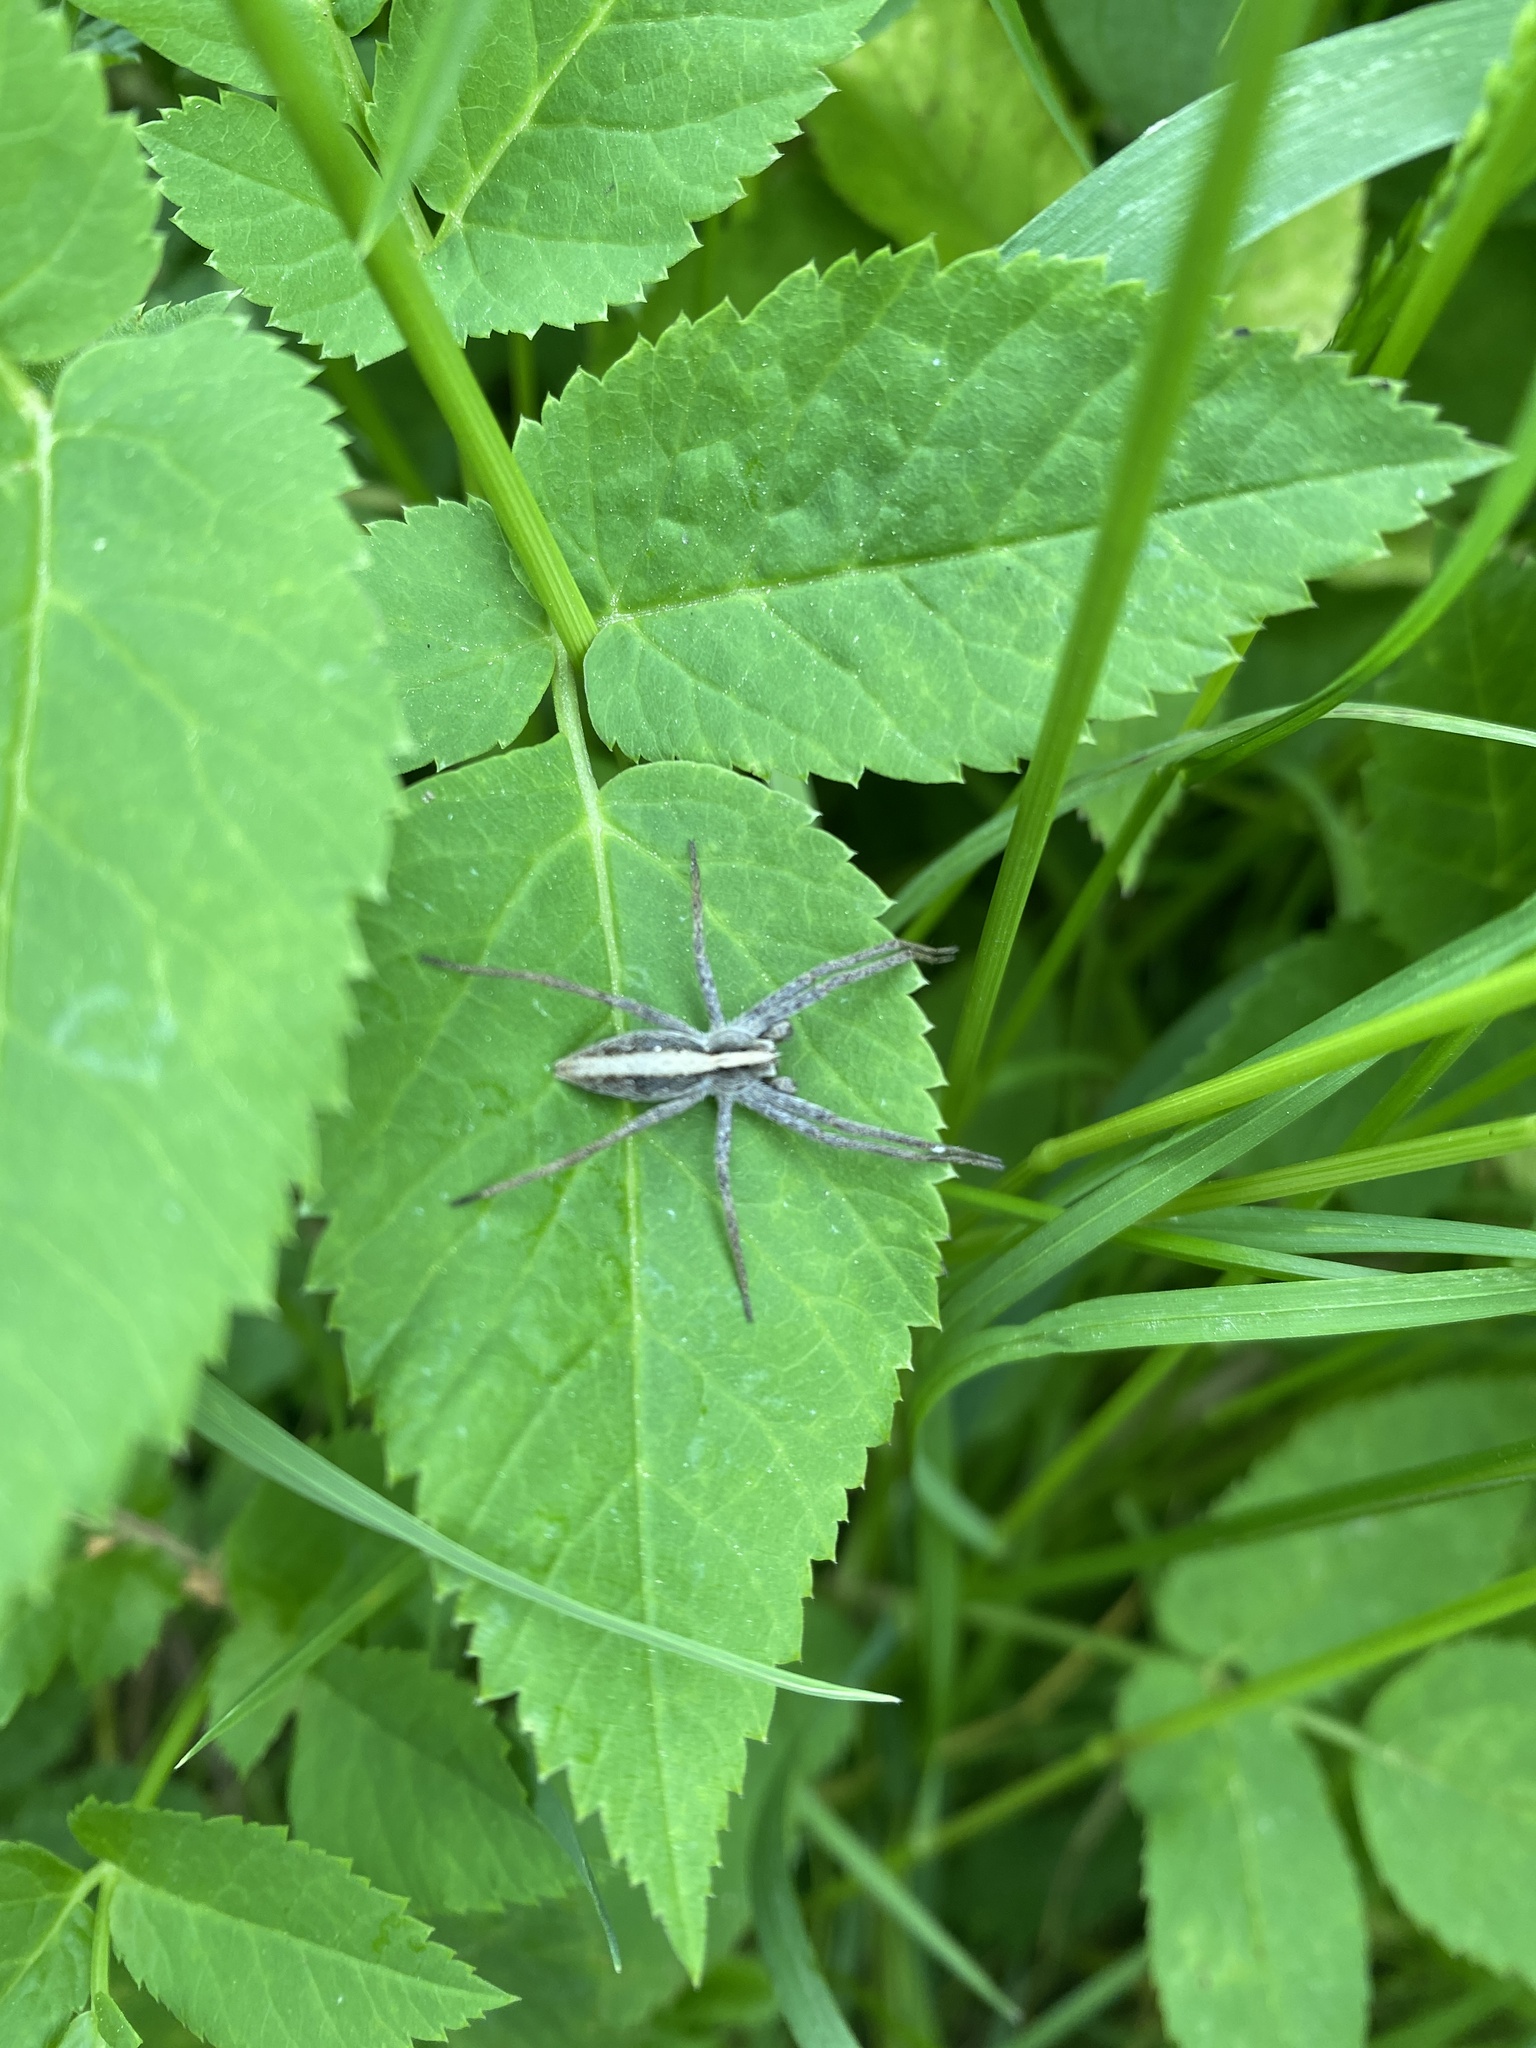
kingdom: Animalia
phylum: Arthropoda
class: Arachnida
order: Araneae
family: Pisauridae
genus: Pisaura
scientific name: Pisaura mirabilis
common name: Tent spider
